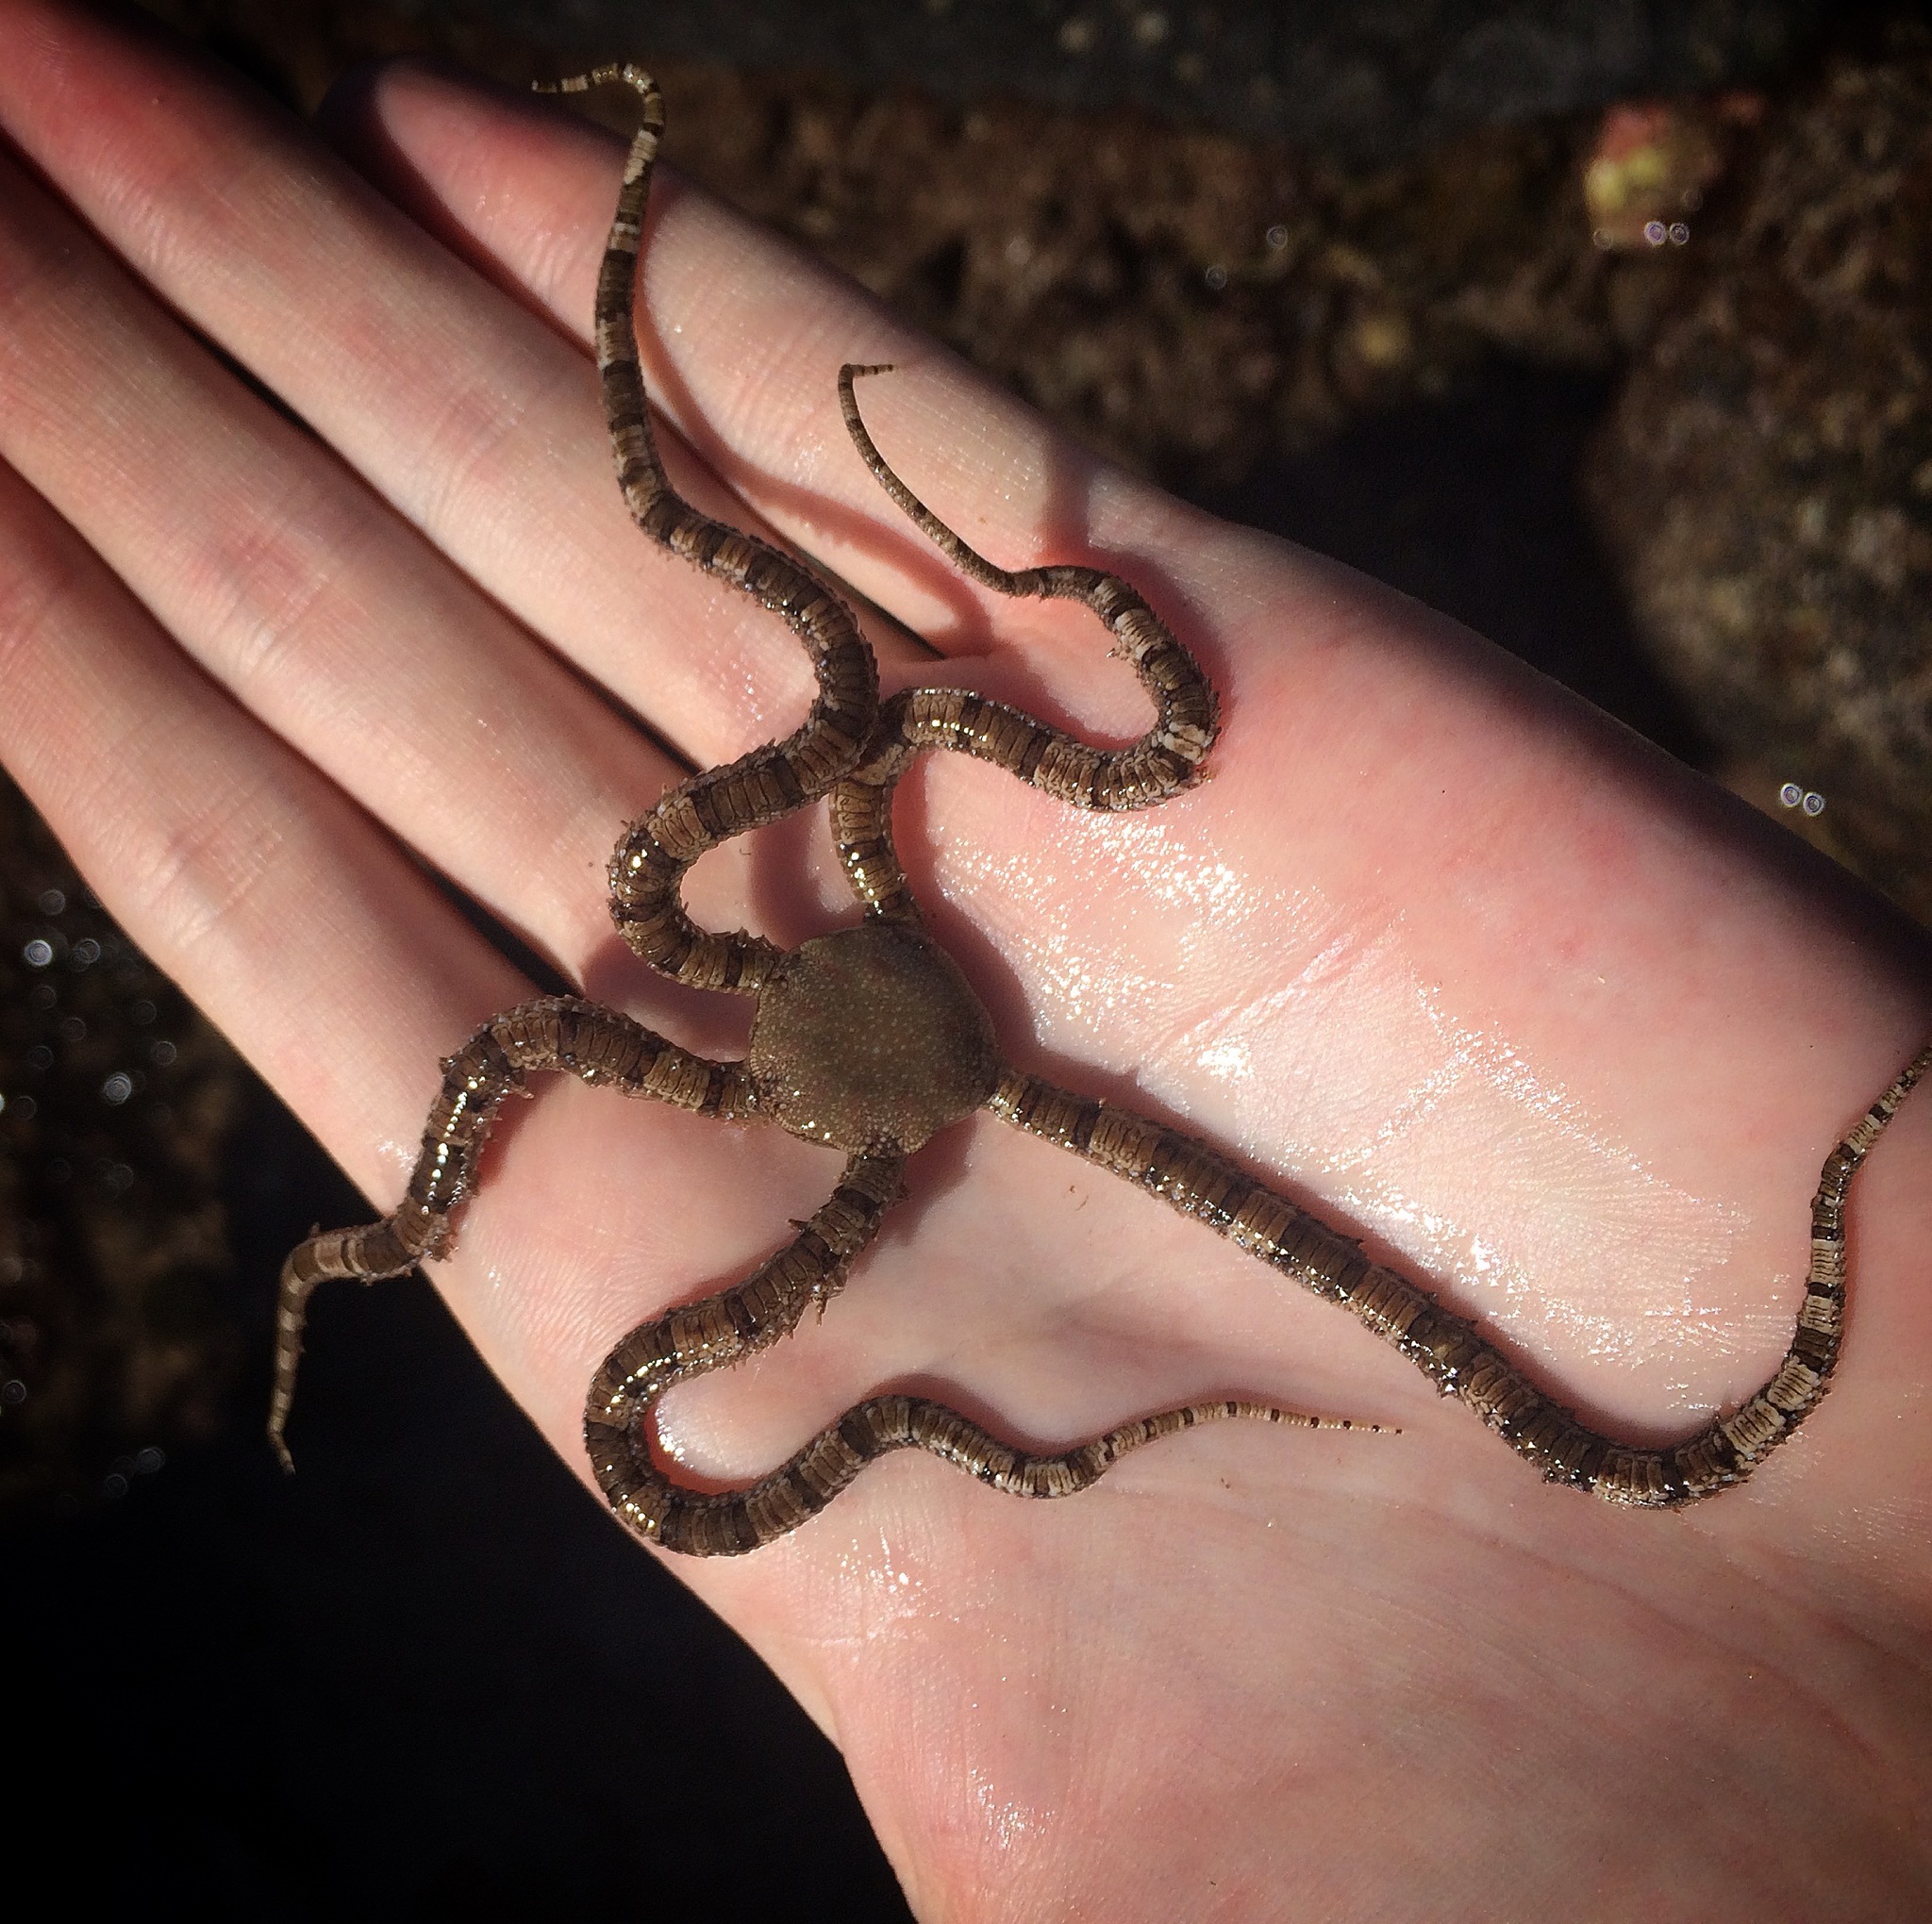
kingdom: Animalia
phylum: Echinodermata
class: Ophiuroidea
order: Amphilepidida
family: Ophionereididae
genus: Ophionereis
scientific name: Ophionereis schayeri
